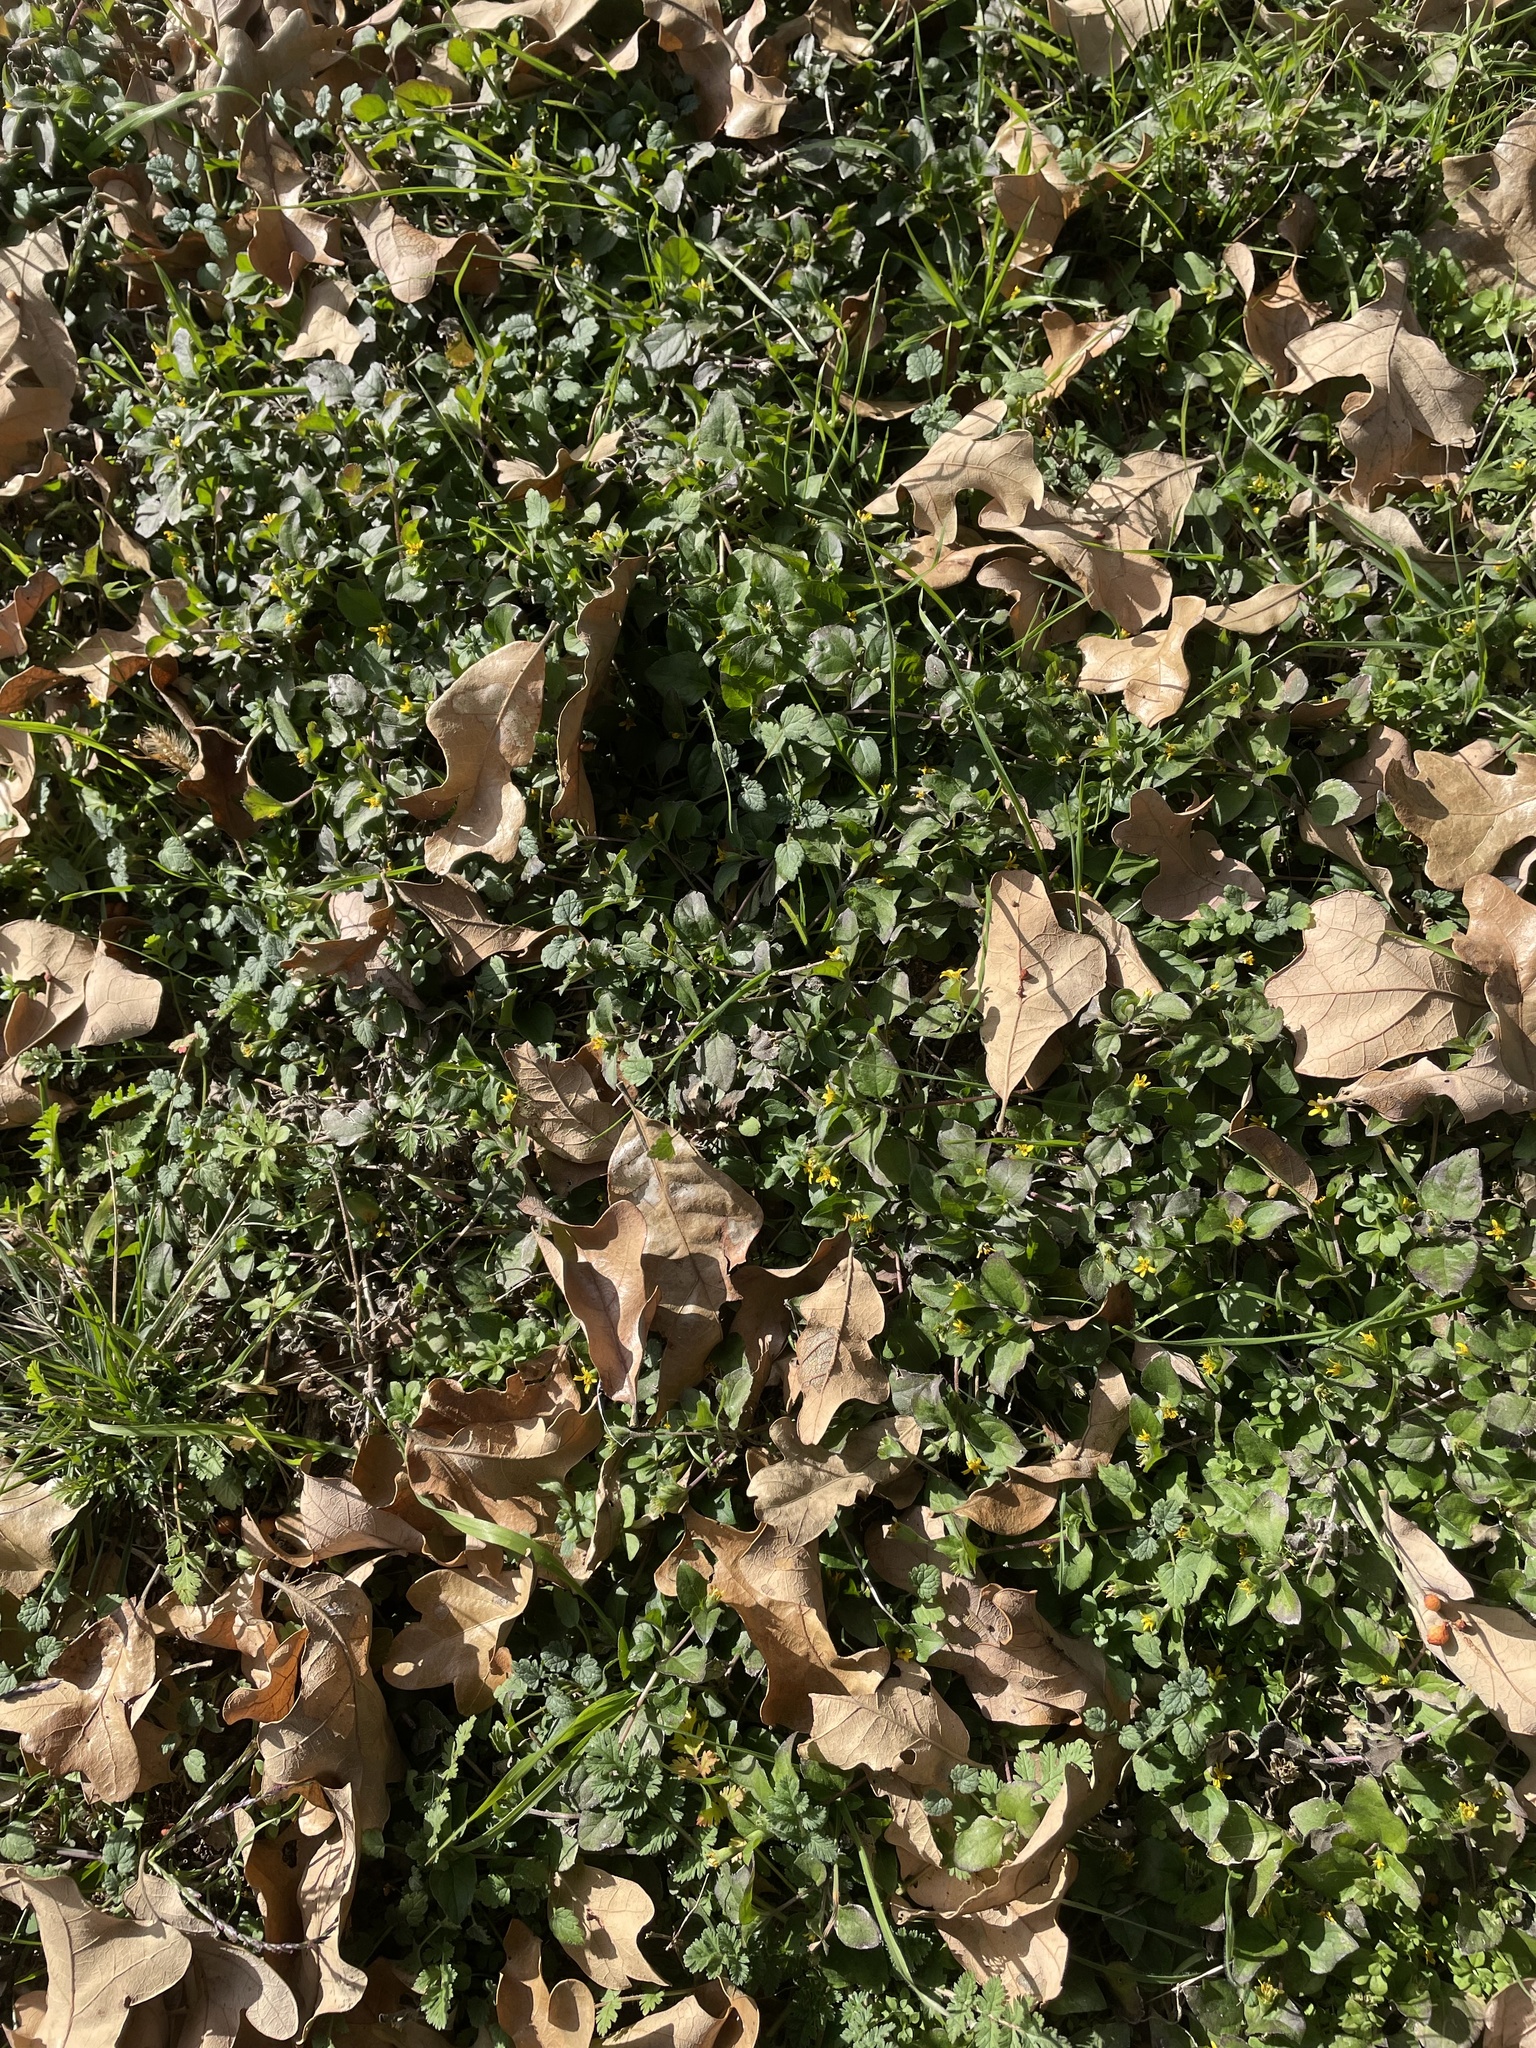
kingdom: Plantae
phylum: Tracheophyta
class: Magnoliopsida
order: Asterales
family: Asteraceae
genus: Calyptocarpus
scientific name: Calyptocarpus vialis
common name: Straggler daisy
